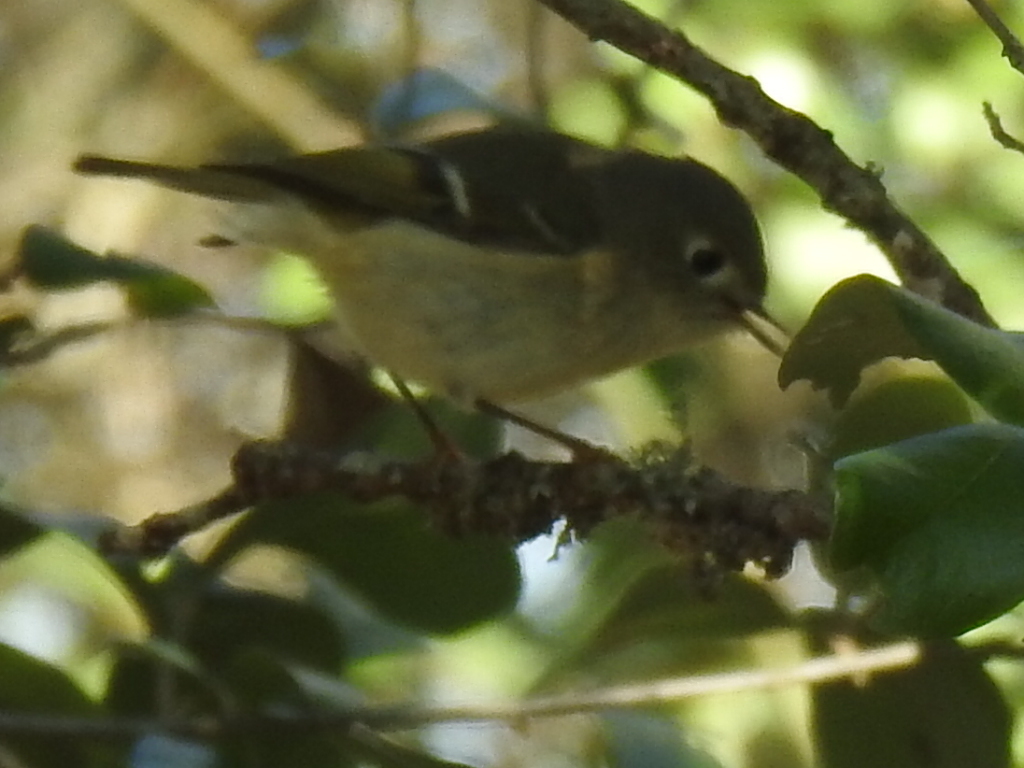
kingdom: Animalia
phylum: Chordata
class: Aves
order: Passeriformes
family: Regulidae
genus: Regulus
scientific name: Regulus calendula
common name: Ruby-crowned kinglet
